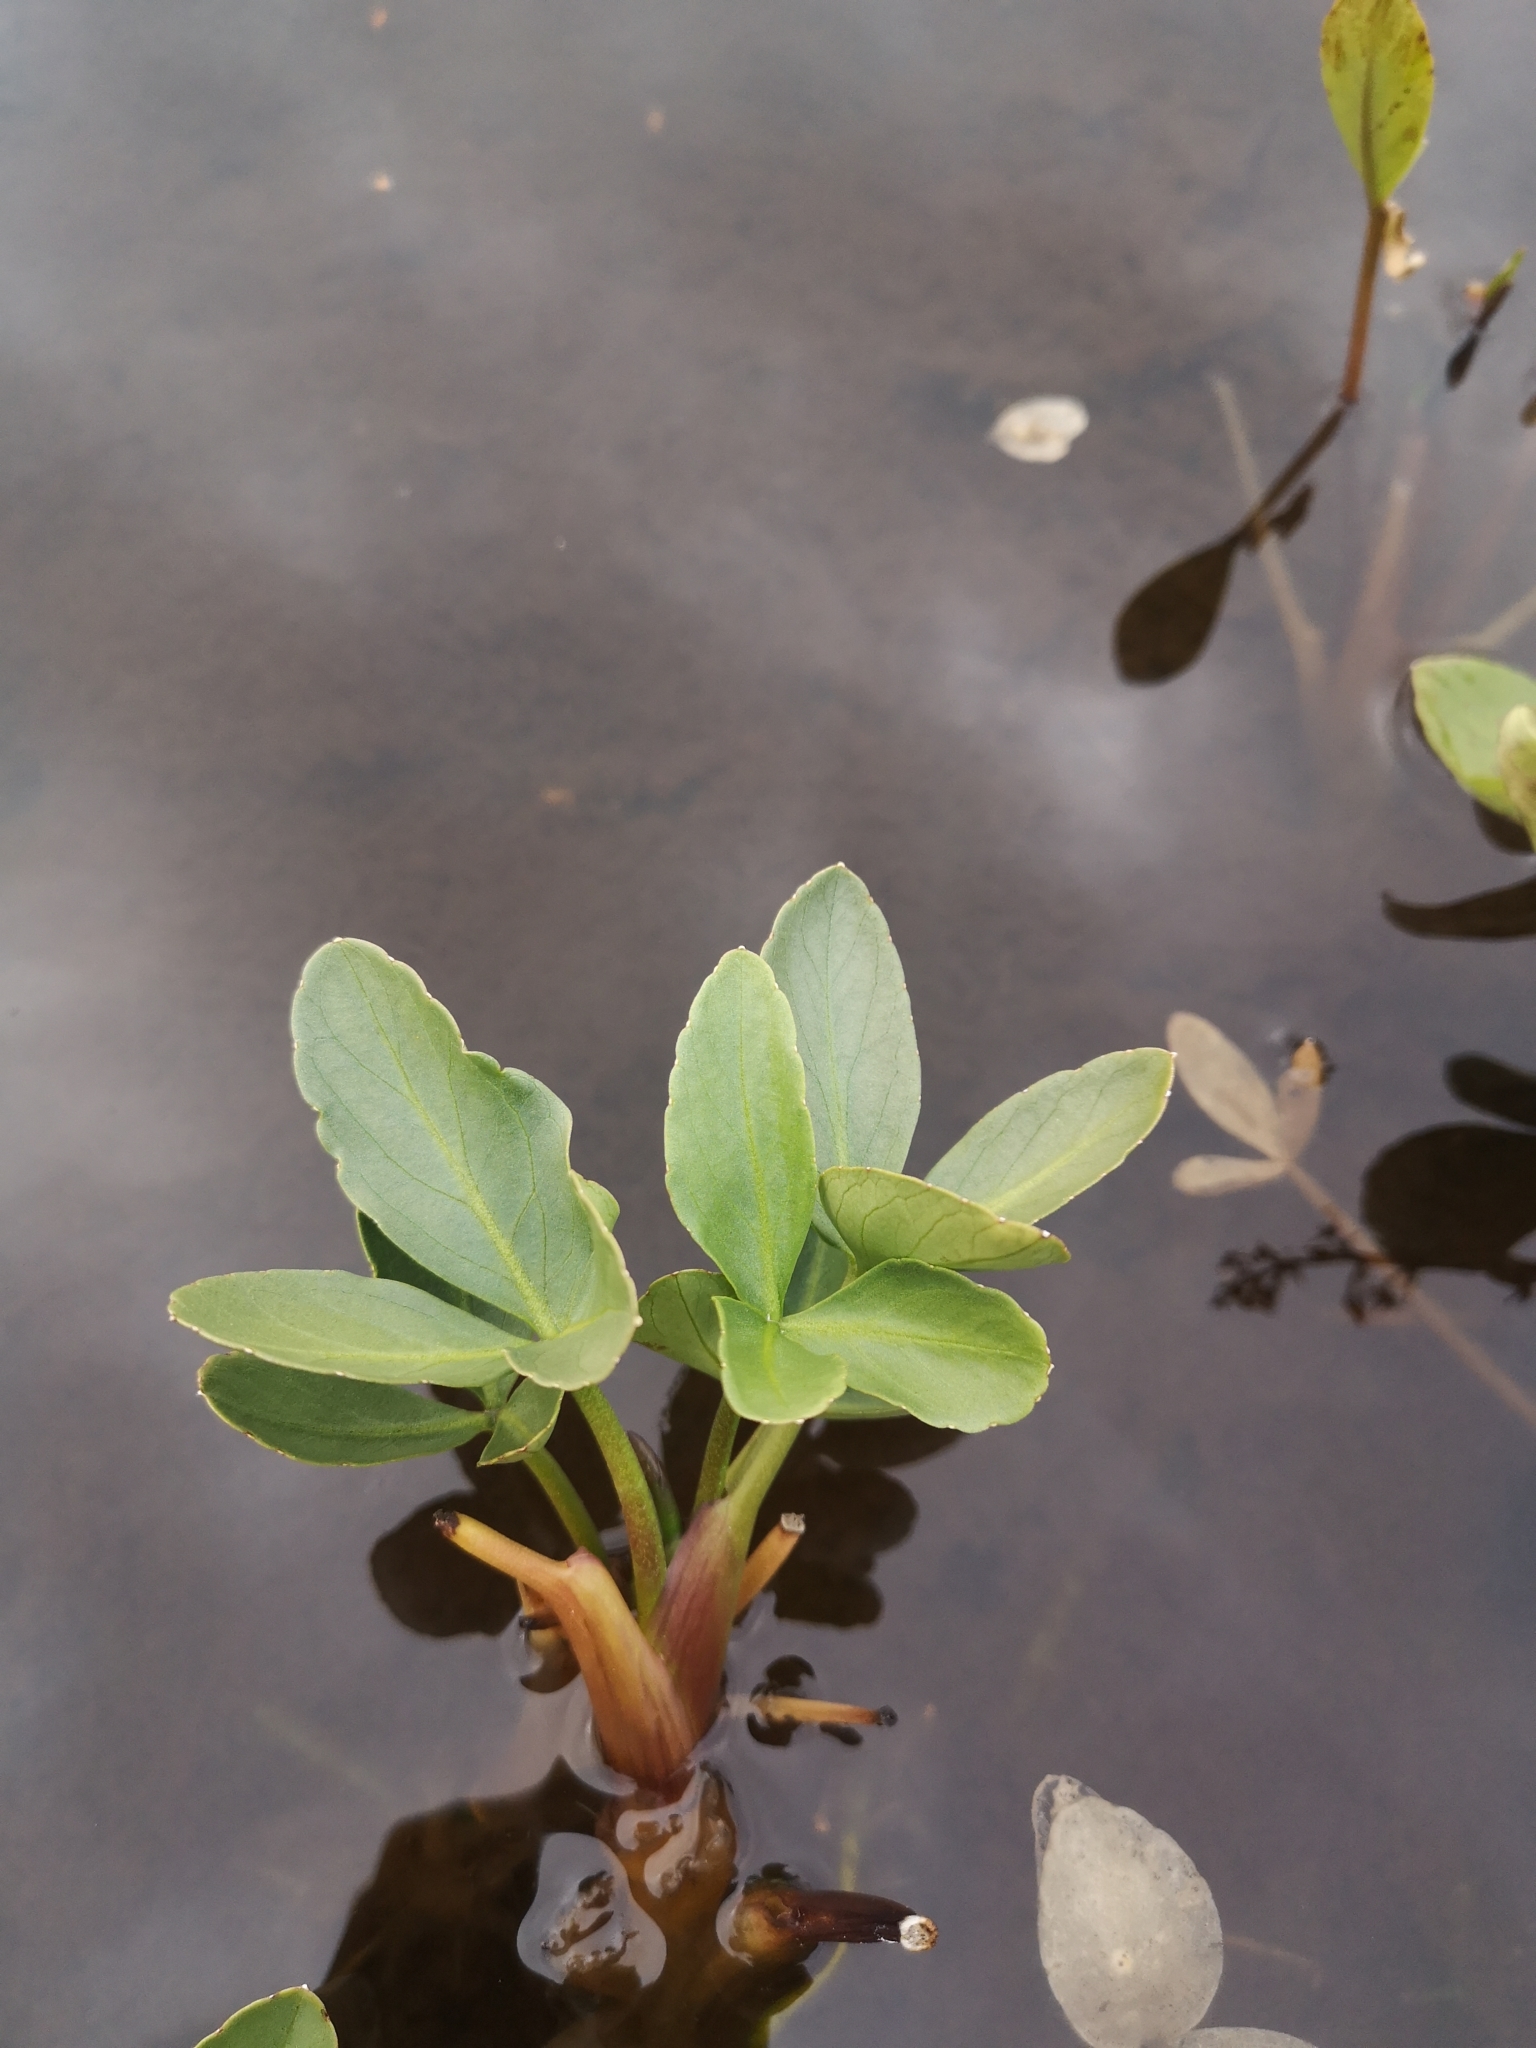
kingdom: Plantae
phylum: Tracheophyta
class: Magnoliopsida
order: Asterales
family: Menyanthaceae
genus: Menyanthes
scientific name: Menyanthes trifoliata
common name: Bogbean
